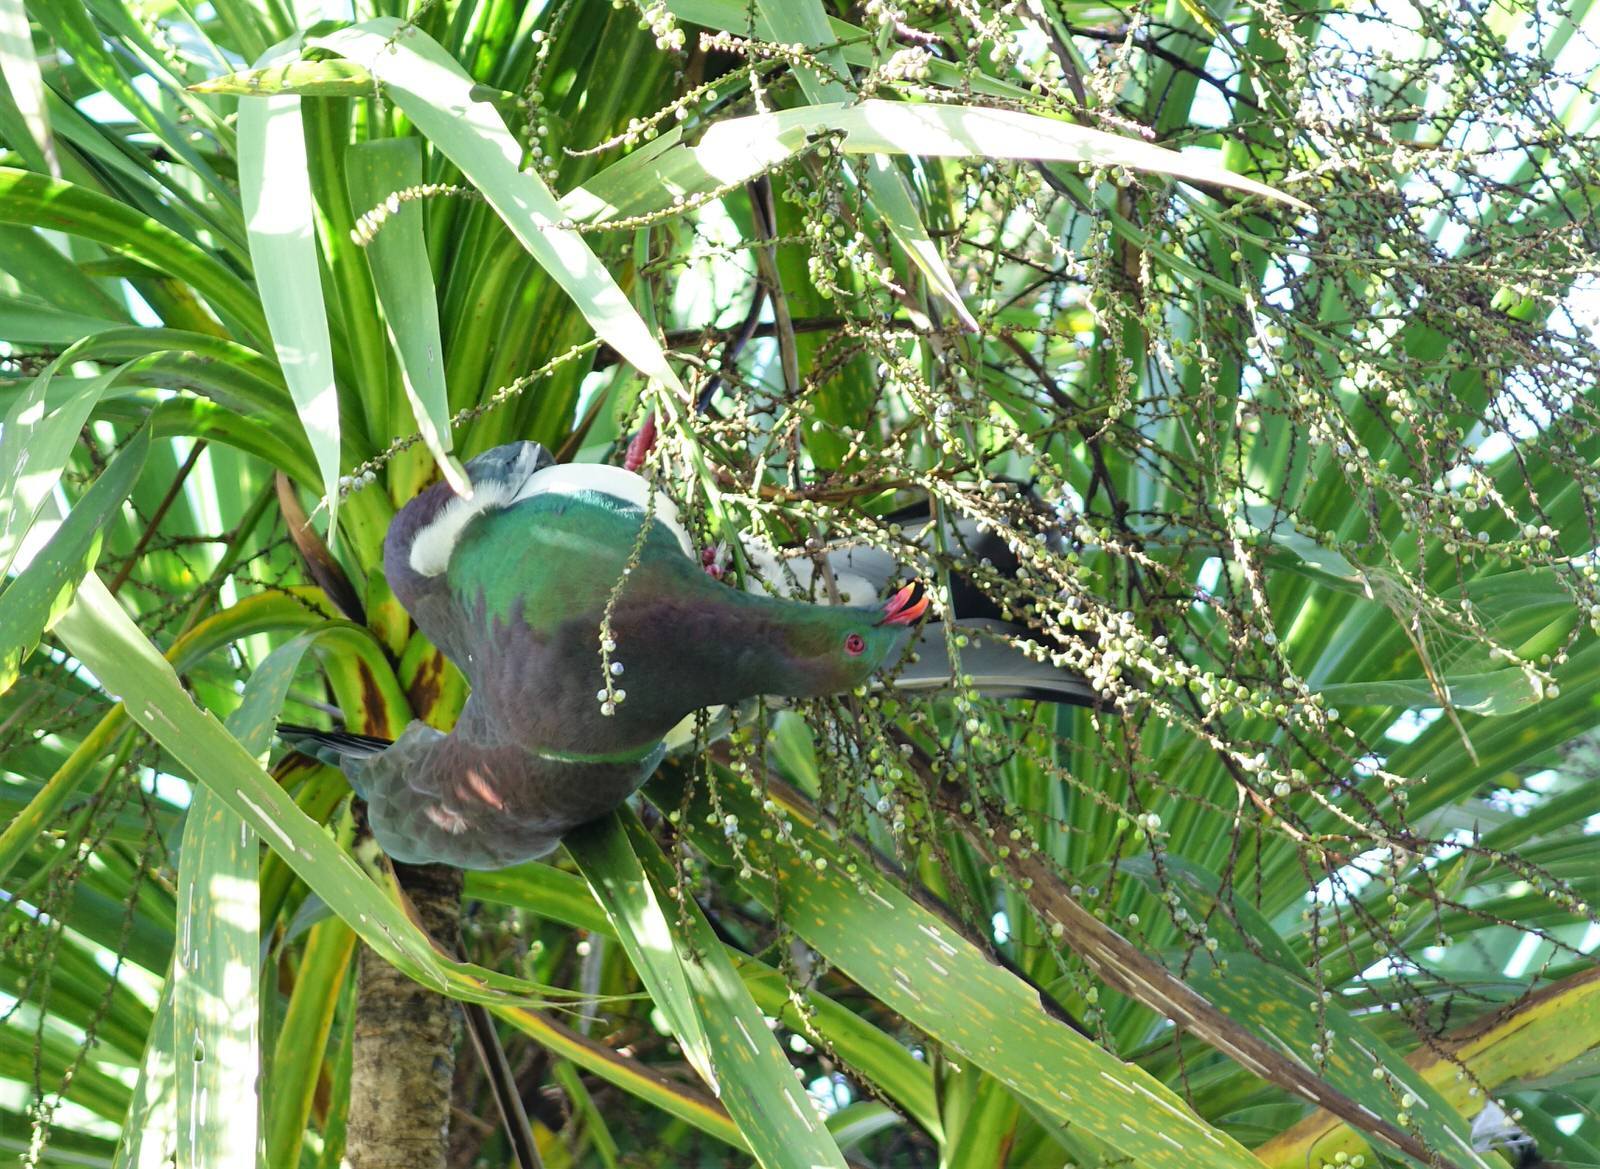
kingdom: Animalia
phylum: Chordata
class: Aves
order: Columbiformes
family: Columbidae
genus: Hemiphaga
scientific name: Hemiphaga novaeseelandiae
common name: New zealand pigeon
